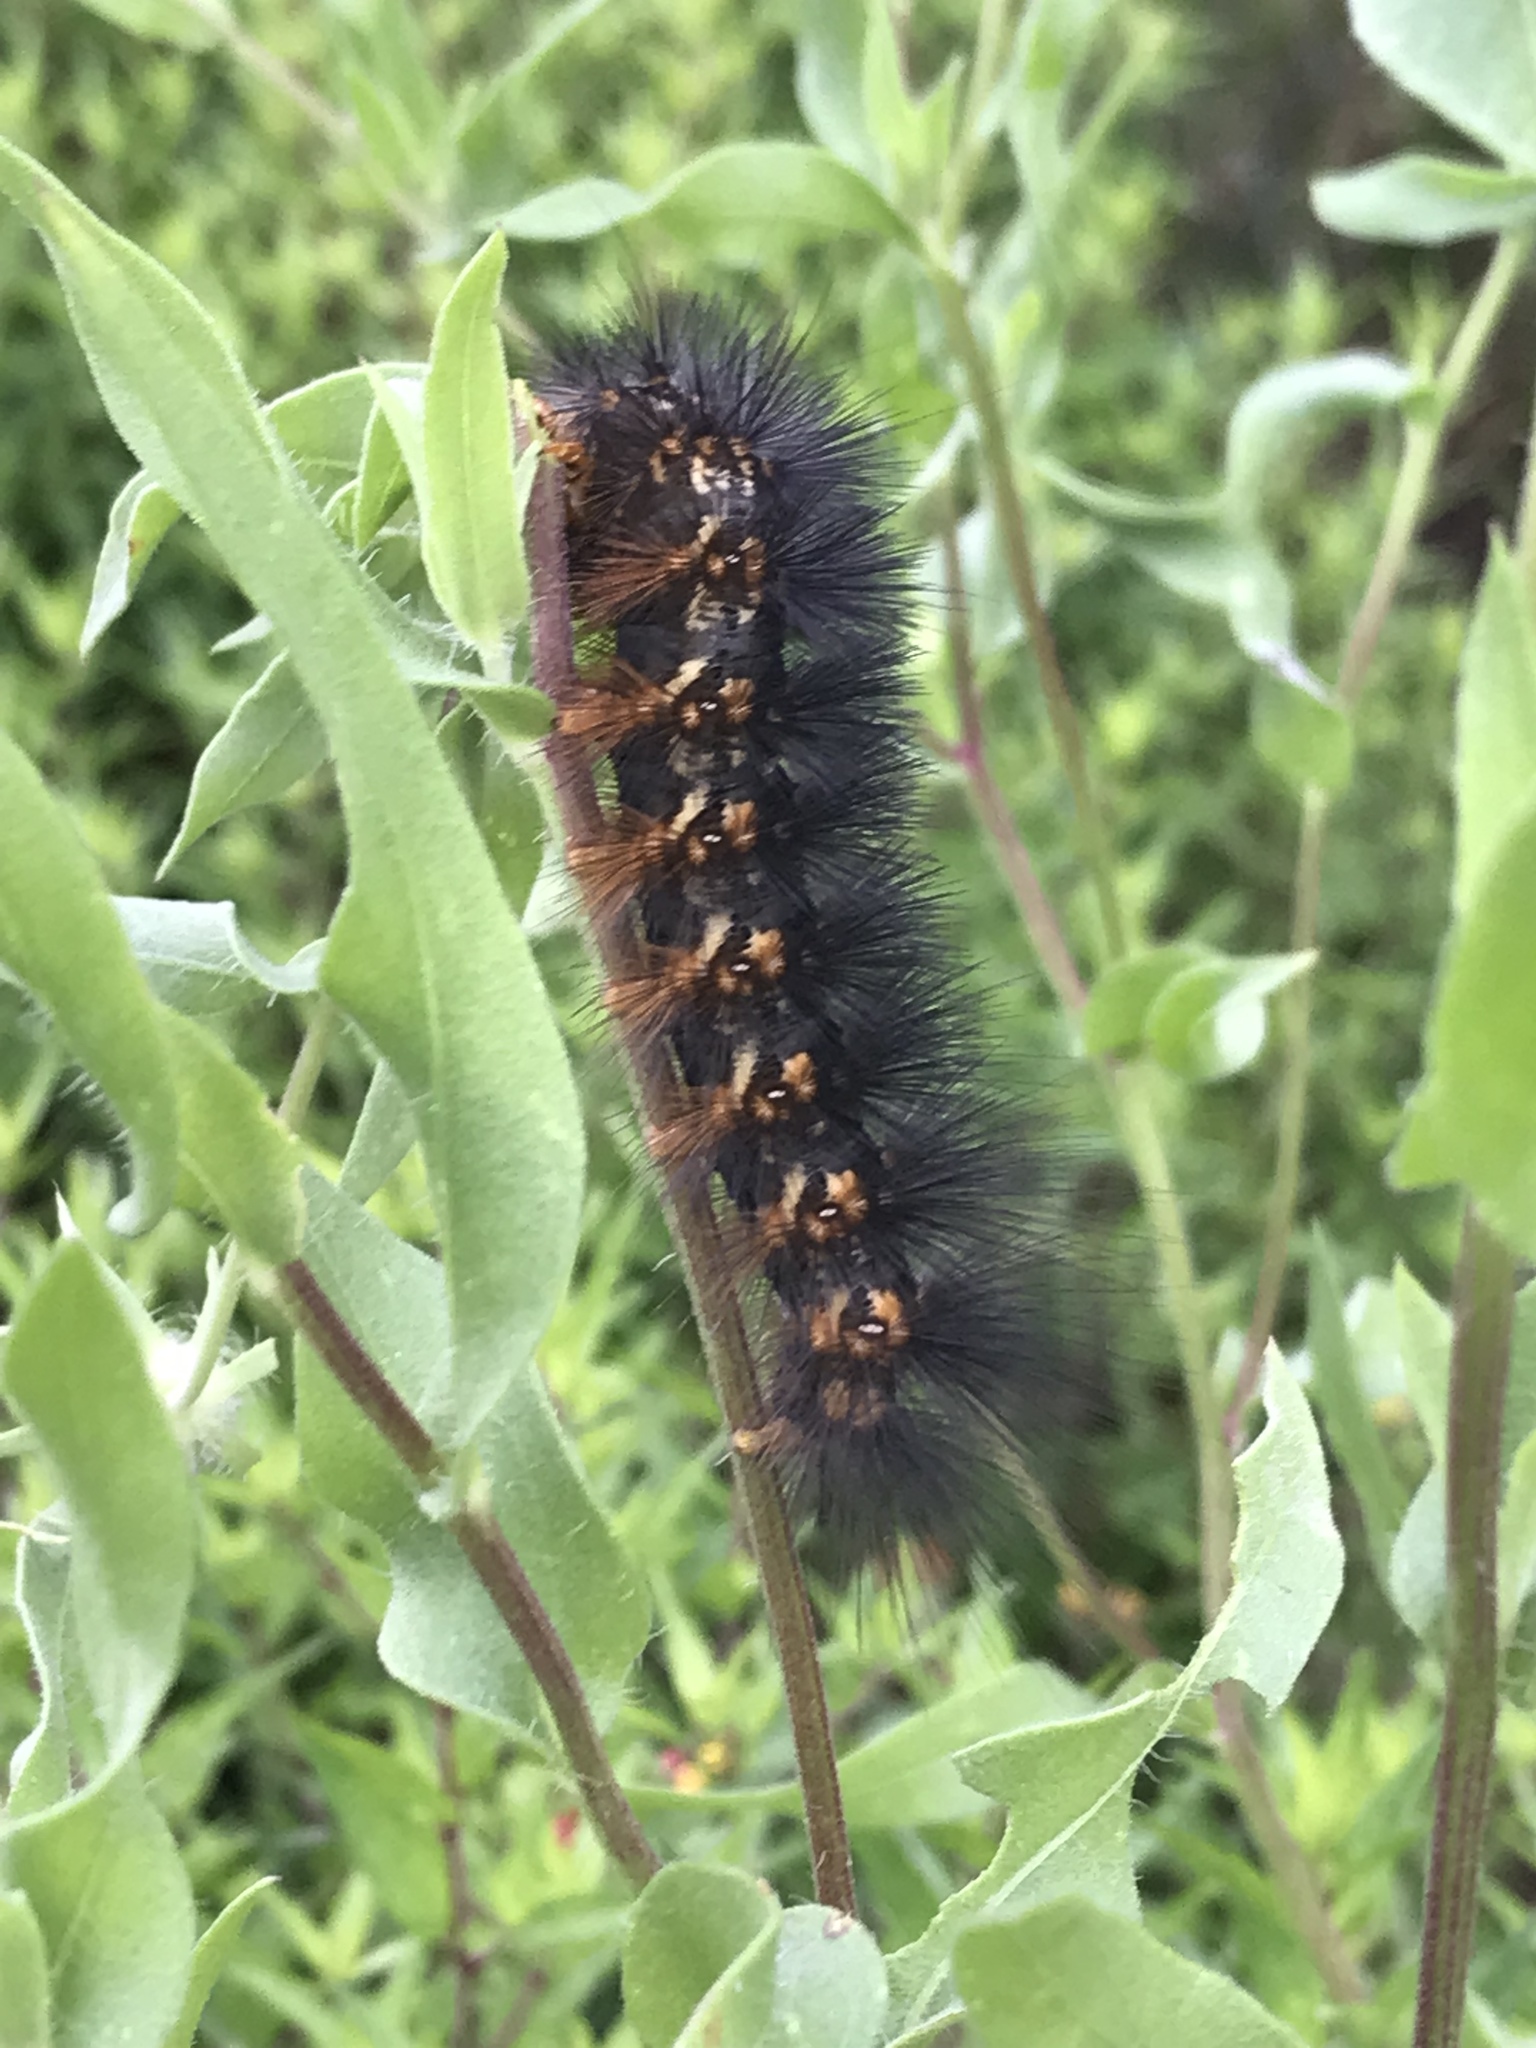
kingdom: Animalia
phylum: Arthropoda
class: Insecta
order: Lepidoptera
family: Erebidae
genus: Estigmene
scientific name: Estigmene acrea
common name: Salt marsh moth
